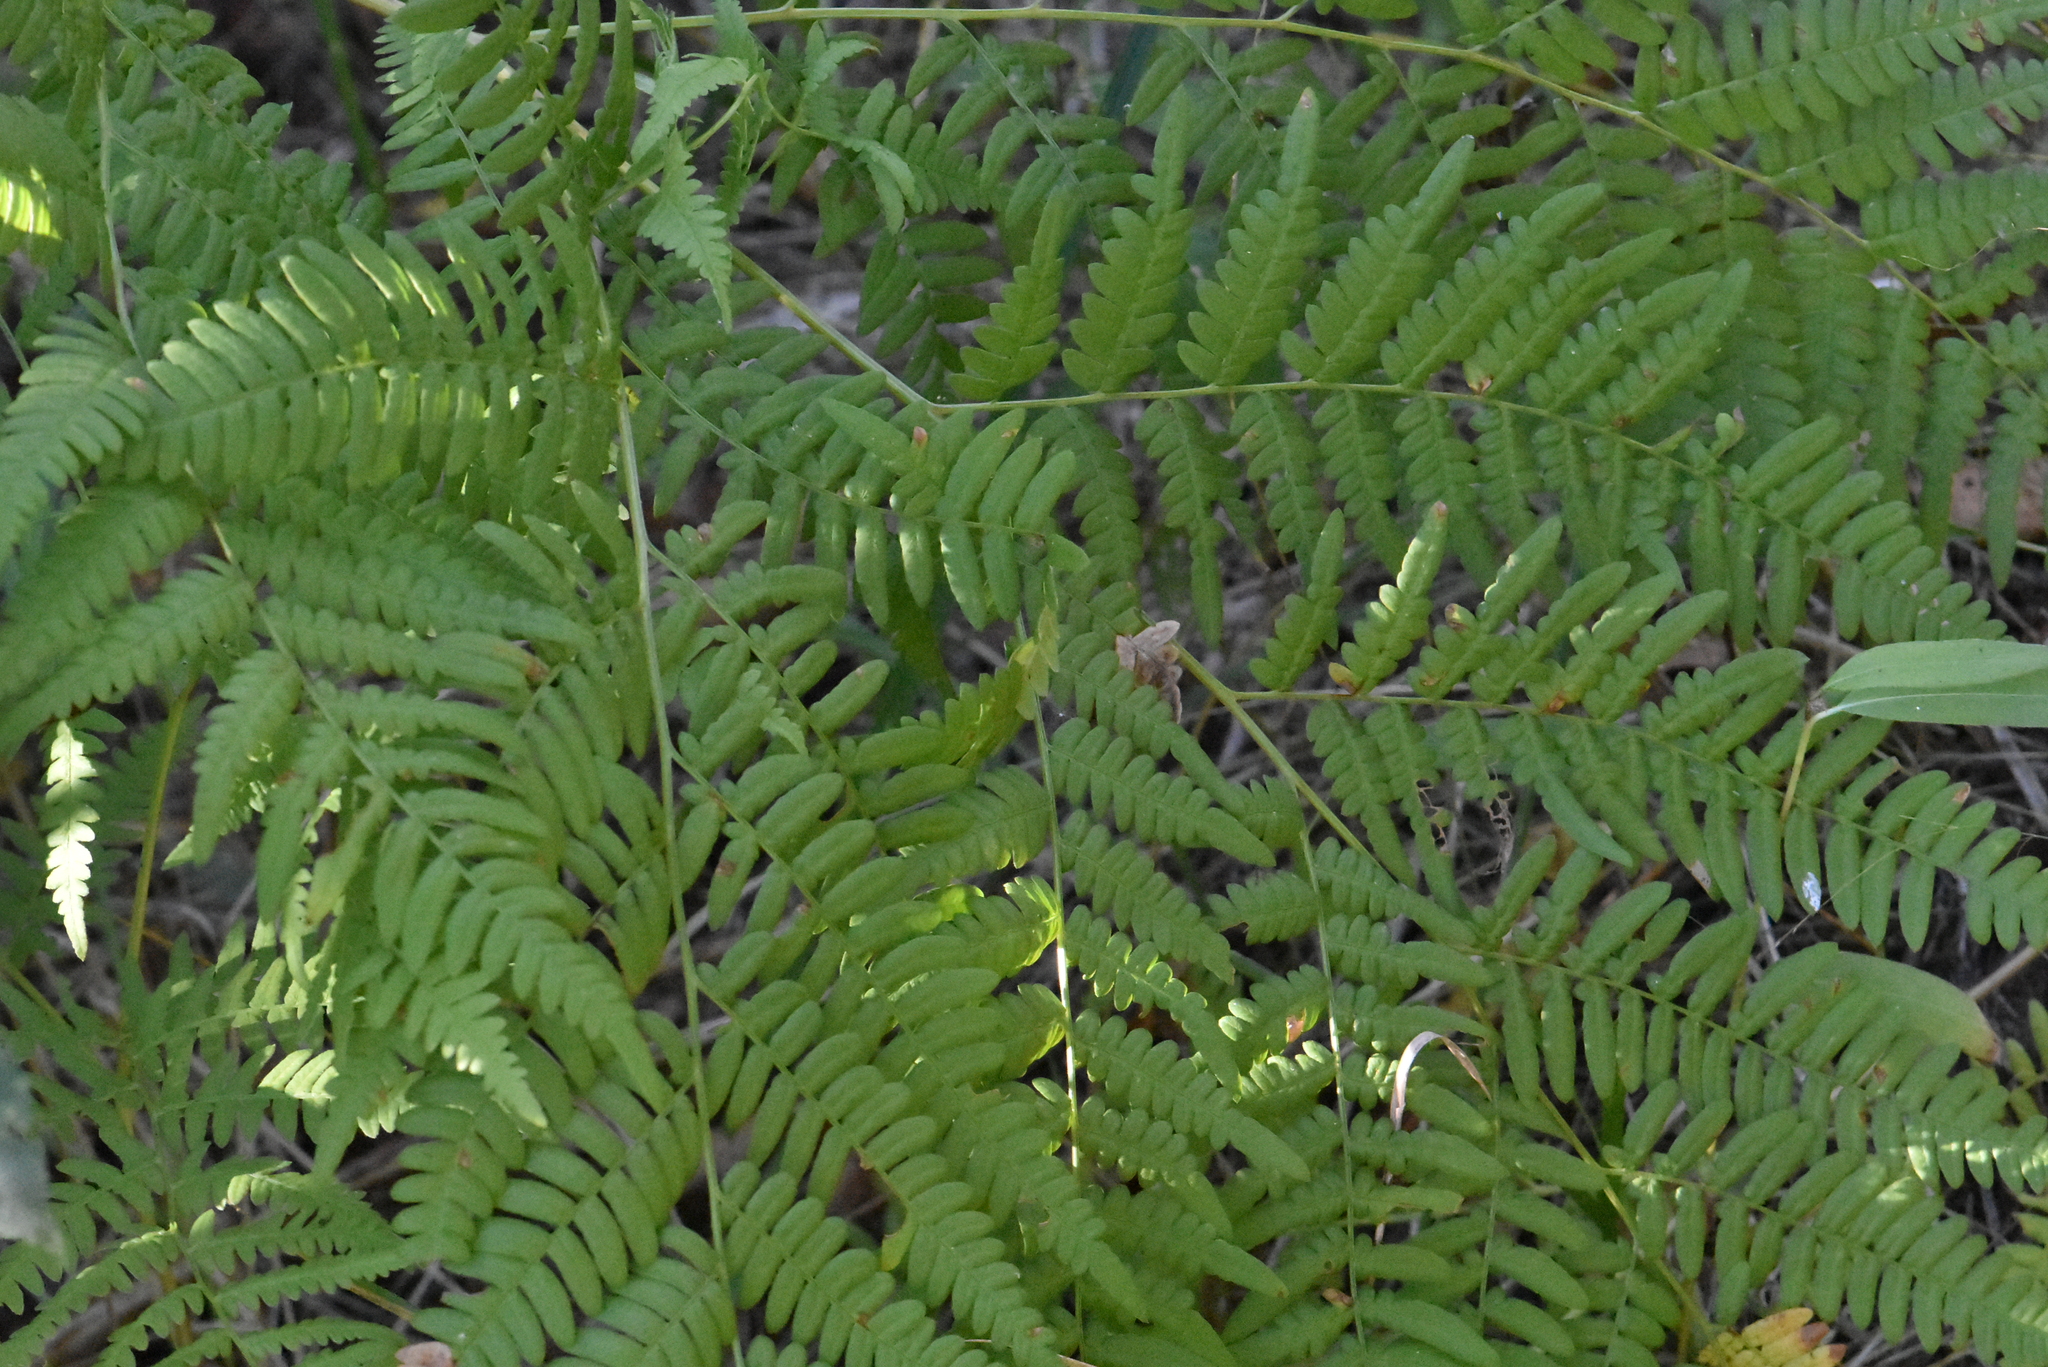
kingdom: Plantae
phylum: Tracheophyta
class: Polypodiopsida
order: Polypodiales
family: Dennstaedtiaceae
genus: Pteridium
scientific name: Pteridium aquilinum
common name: Bracken
